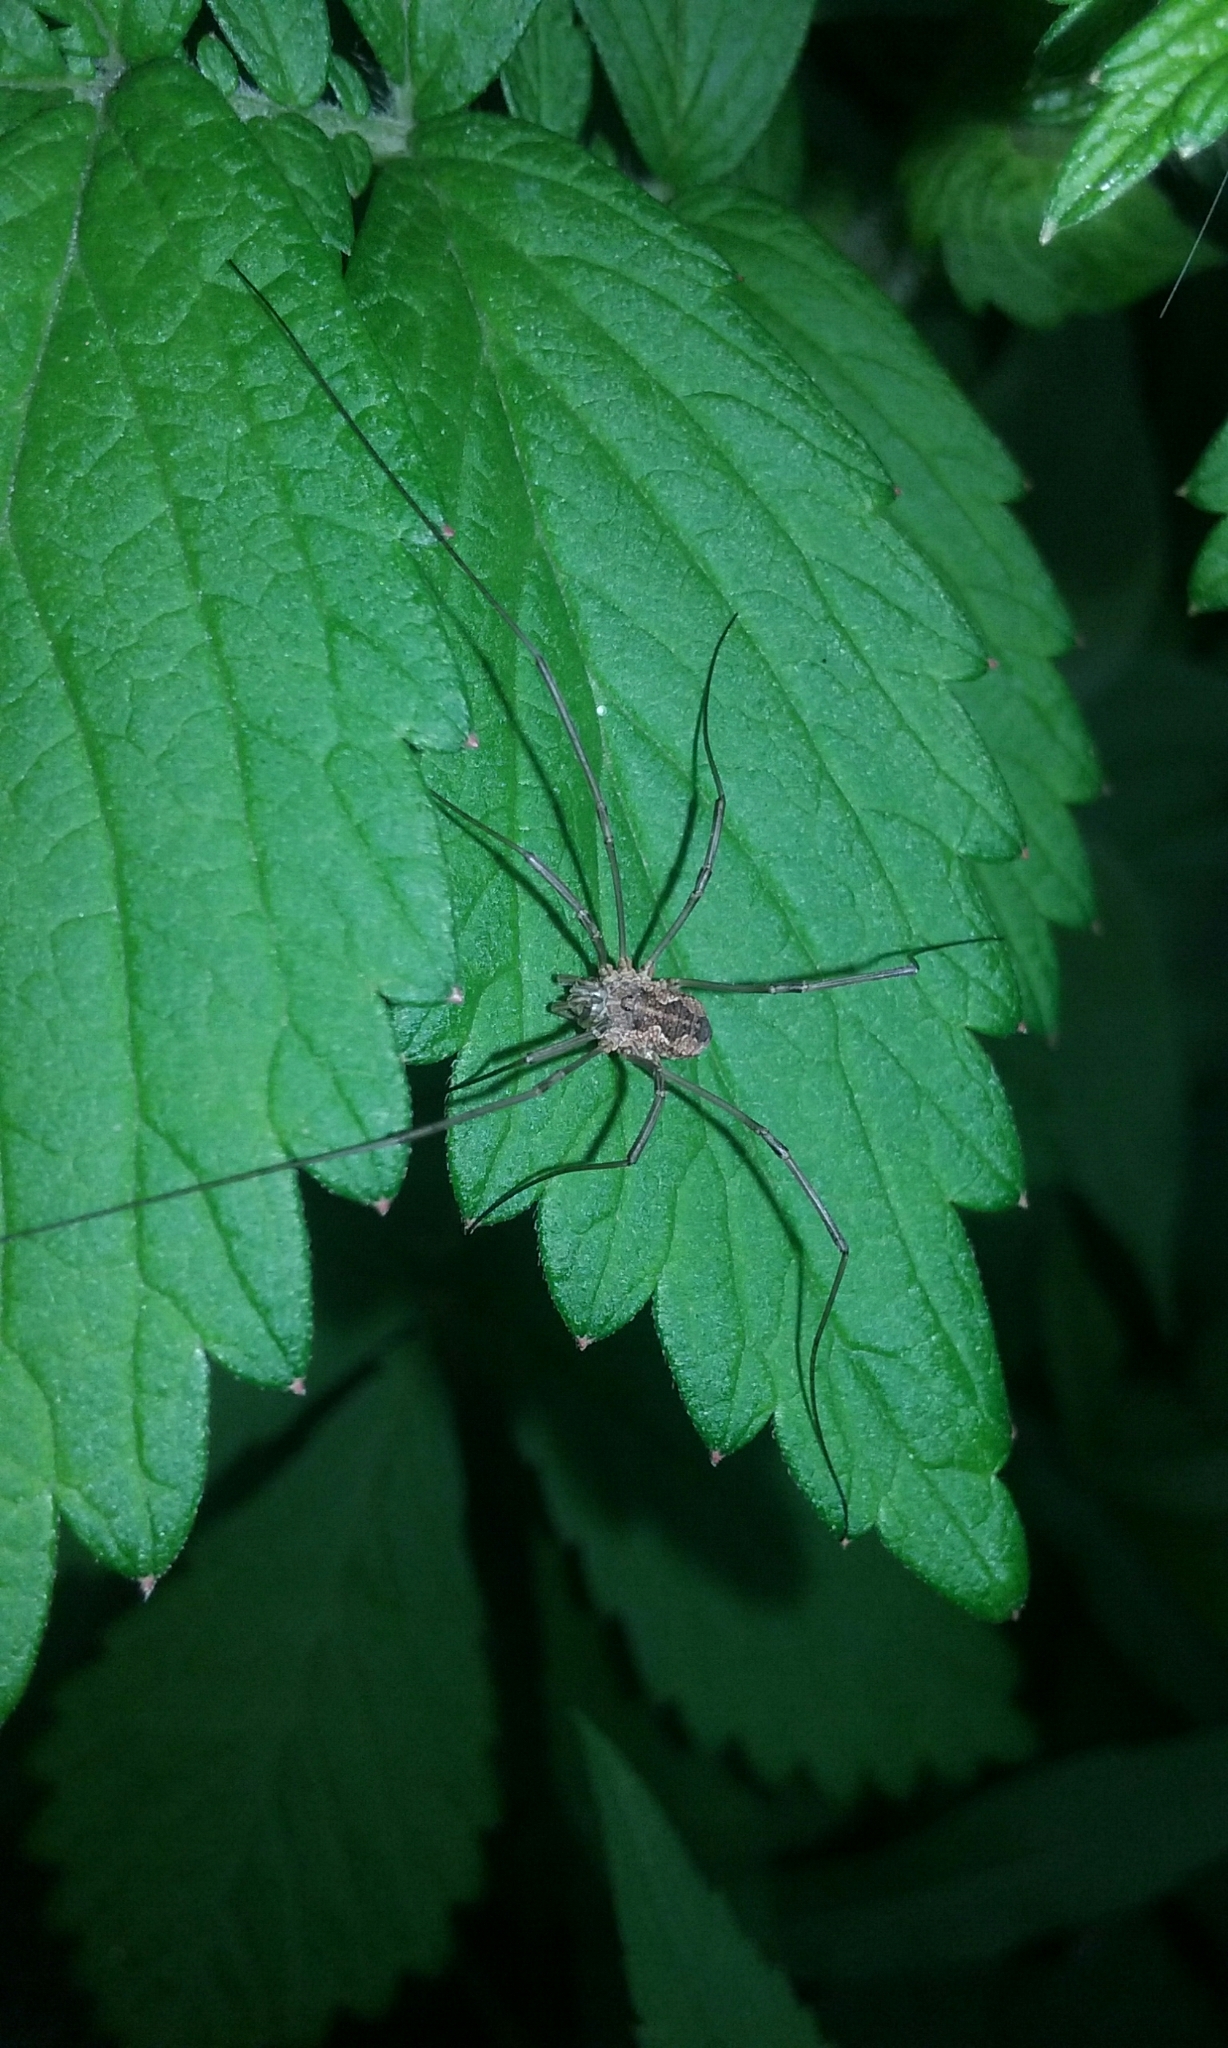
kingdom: Animalia
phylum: Arthropoda
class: Arachnida
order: Opiliones
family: Phalangiidae
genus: Phalangium
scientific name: Phalangium opilio
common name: Daddy longleg
